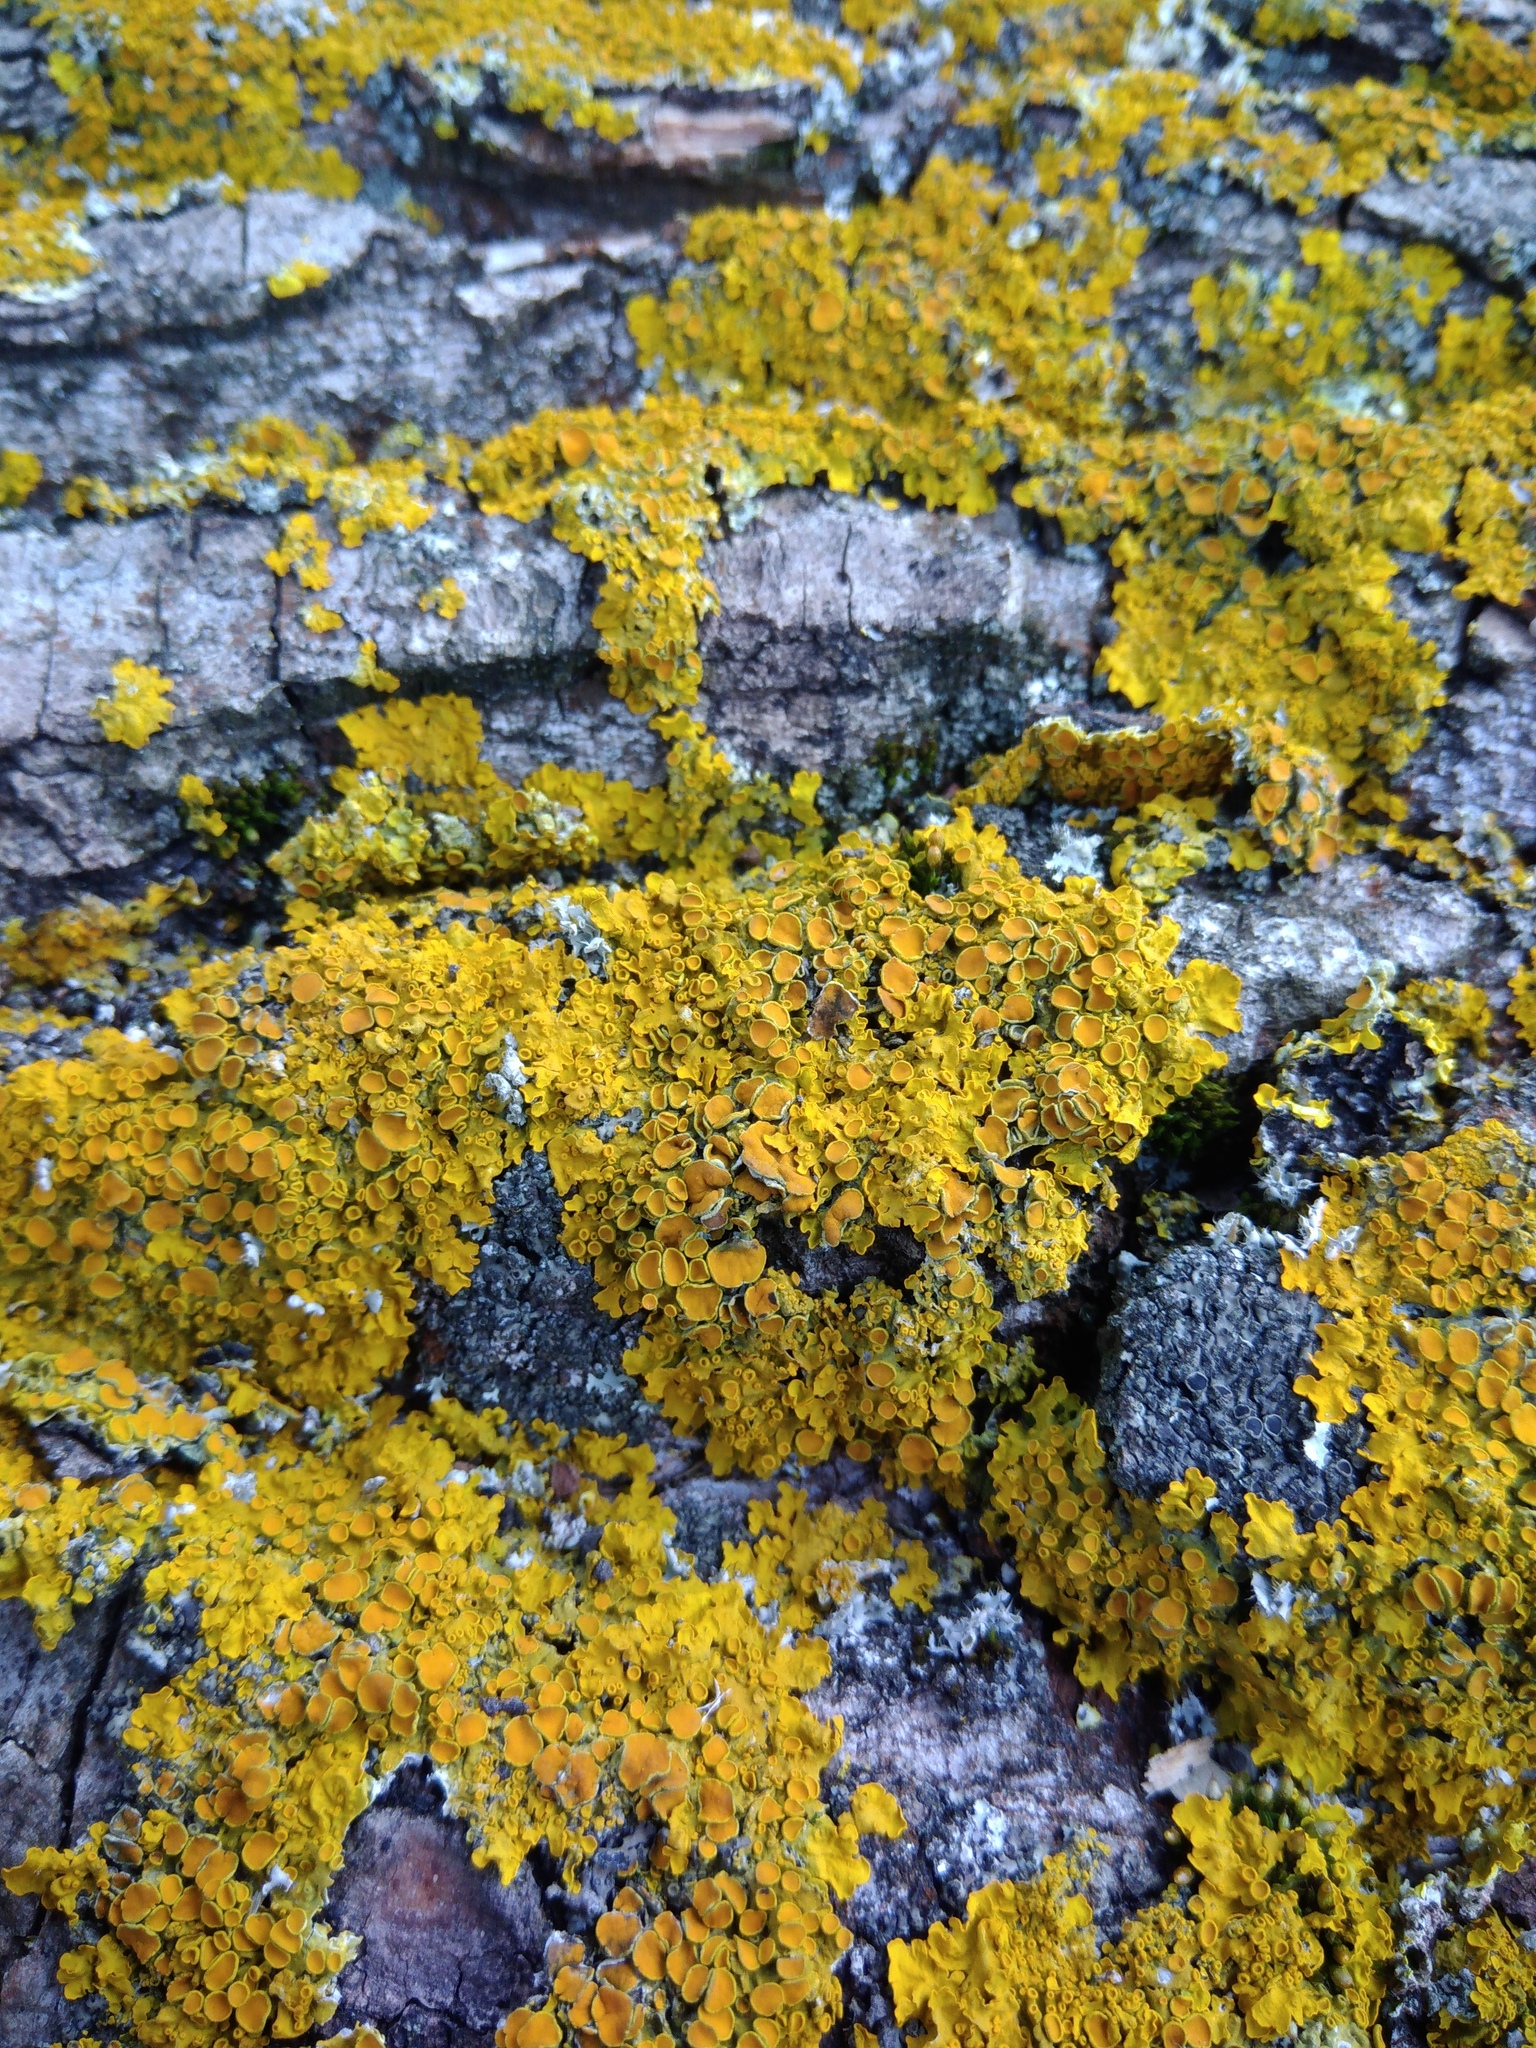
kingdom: Fungi
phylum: Ascomycota
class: Lecanoromycetes
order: Teloschistales
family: Teloschistaceae
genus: Xanthoria
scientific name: Xanthoria parietina
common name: Common orange lichen
